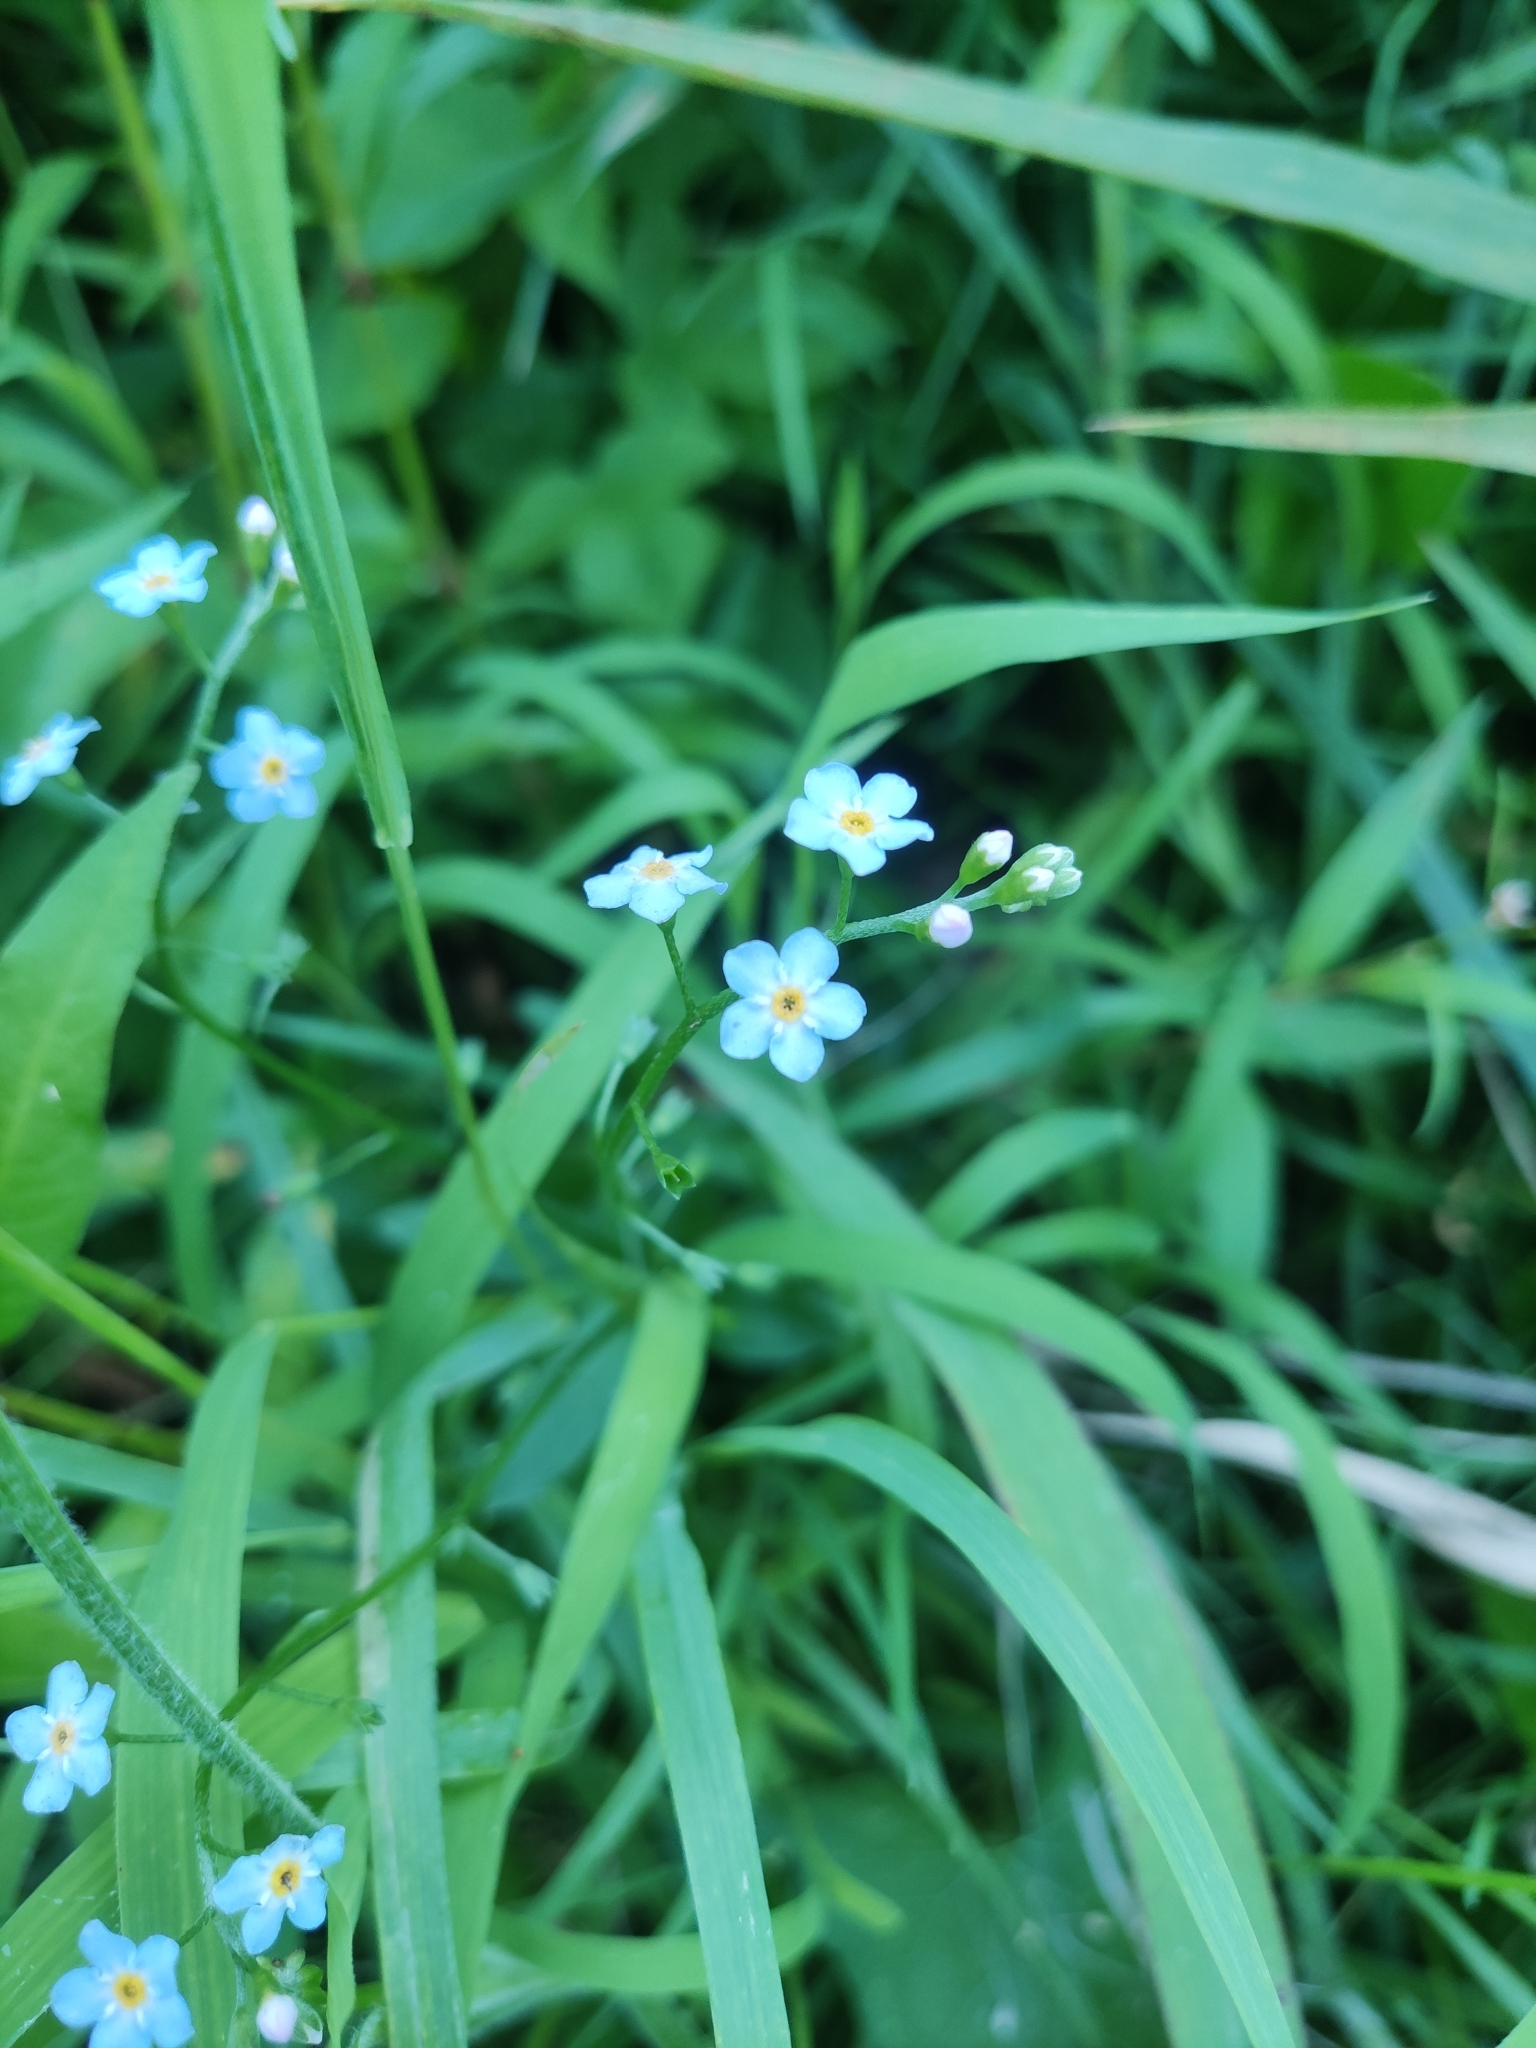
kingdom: Plantae
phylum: Tracheophyta
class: Magnoliopsida
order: Boraginales
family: Boraginaceae
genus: Myosotis
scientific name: Myosotis scorpioides
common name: Water forget-me-not
